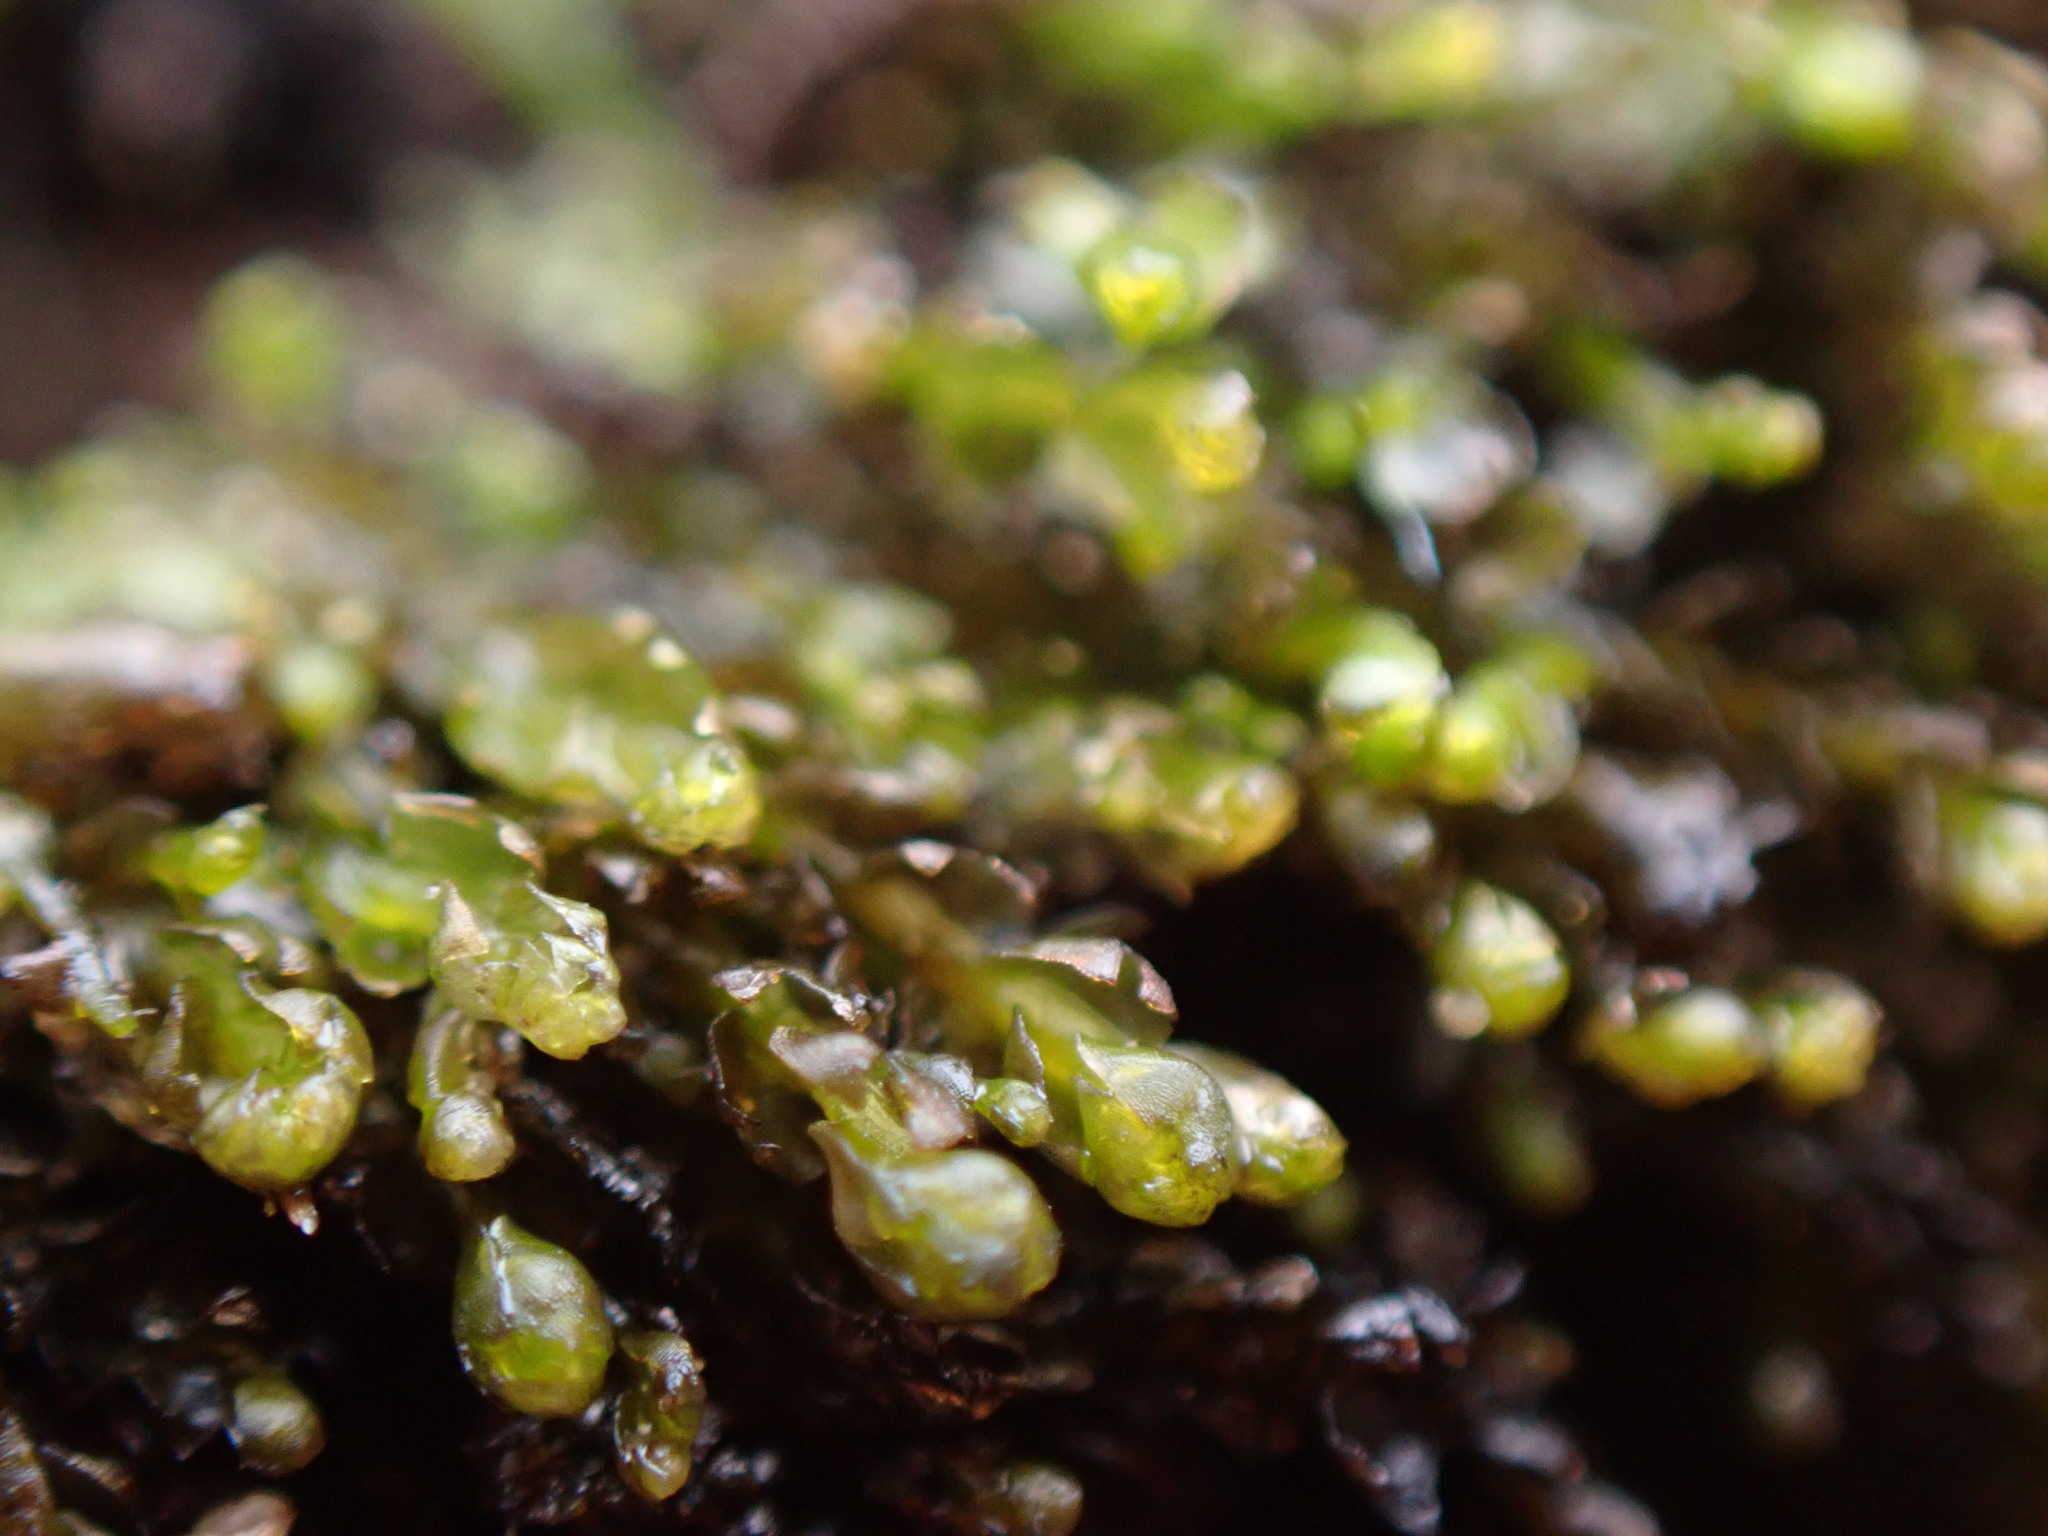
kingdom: Plantae
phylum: Marchantiophyta
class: Jungermanniopsida
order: Jungermanniales
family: Anastrophyllaceae
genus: Gymnocolea
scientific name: Gymnocolea inflata
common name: Inflated notchwort
